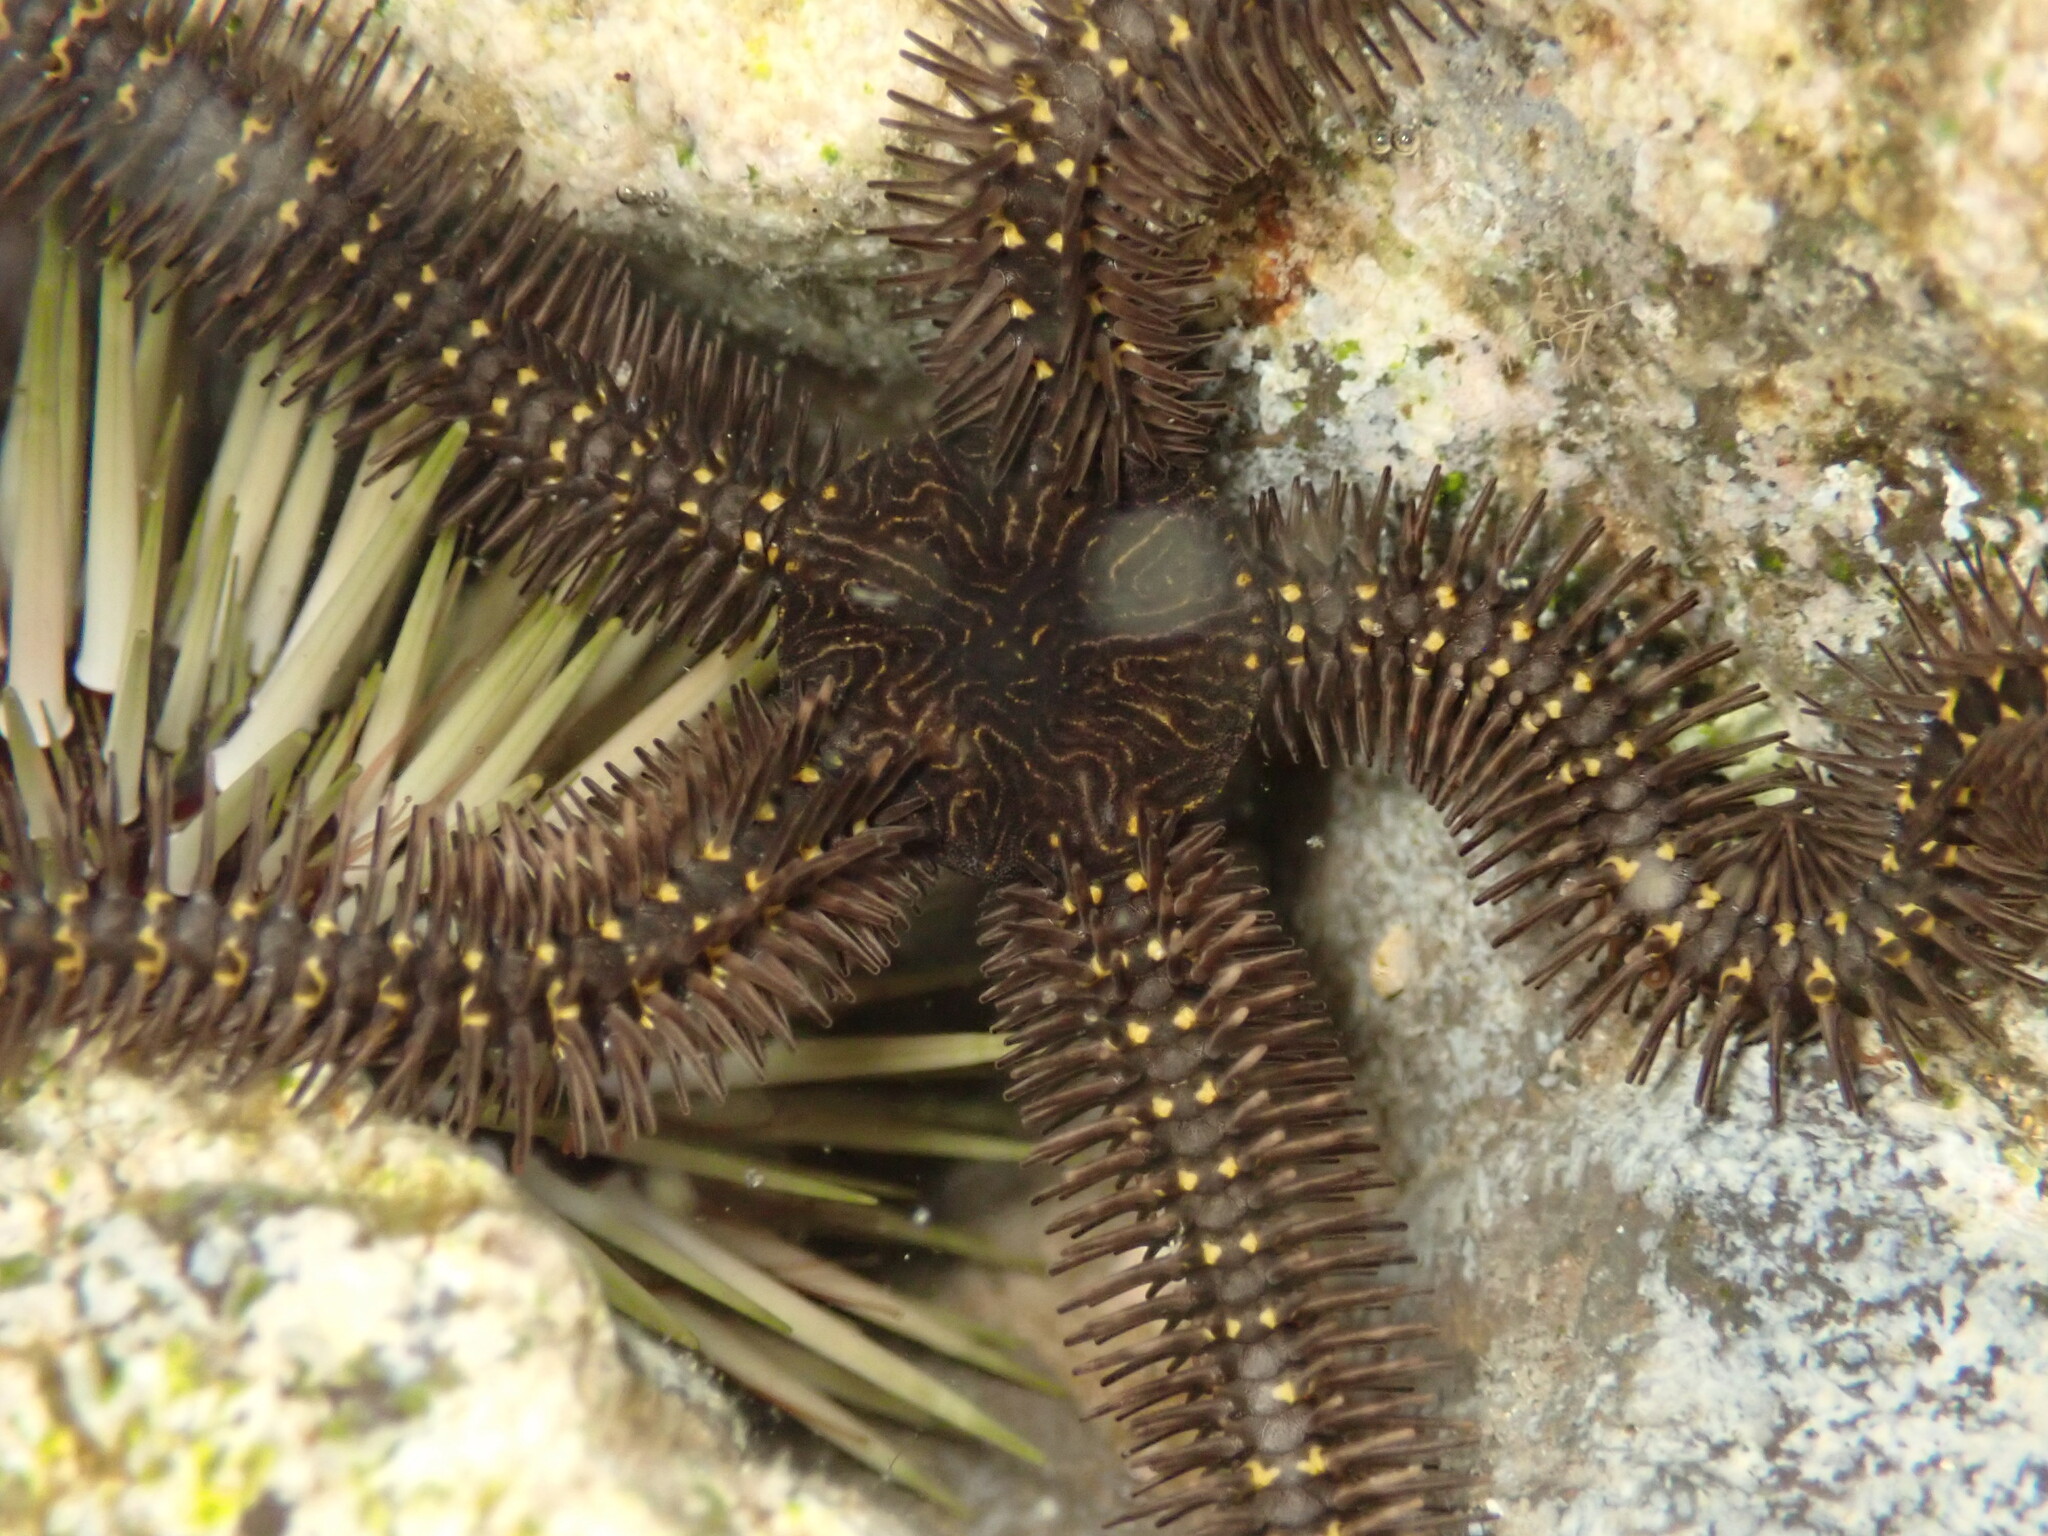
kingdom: Animalia
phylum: Echinodermata
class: Ophiuroidea
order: Ophiacanthida
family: Ophiocomidae
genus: Breviturma
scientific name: Breviturma pica
